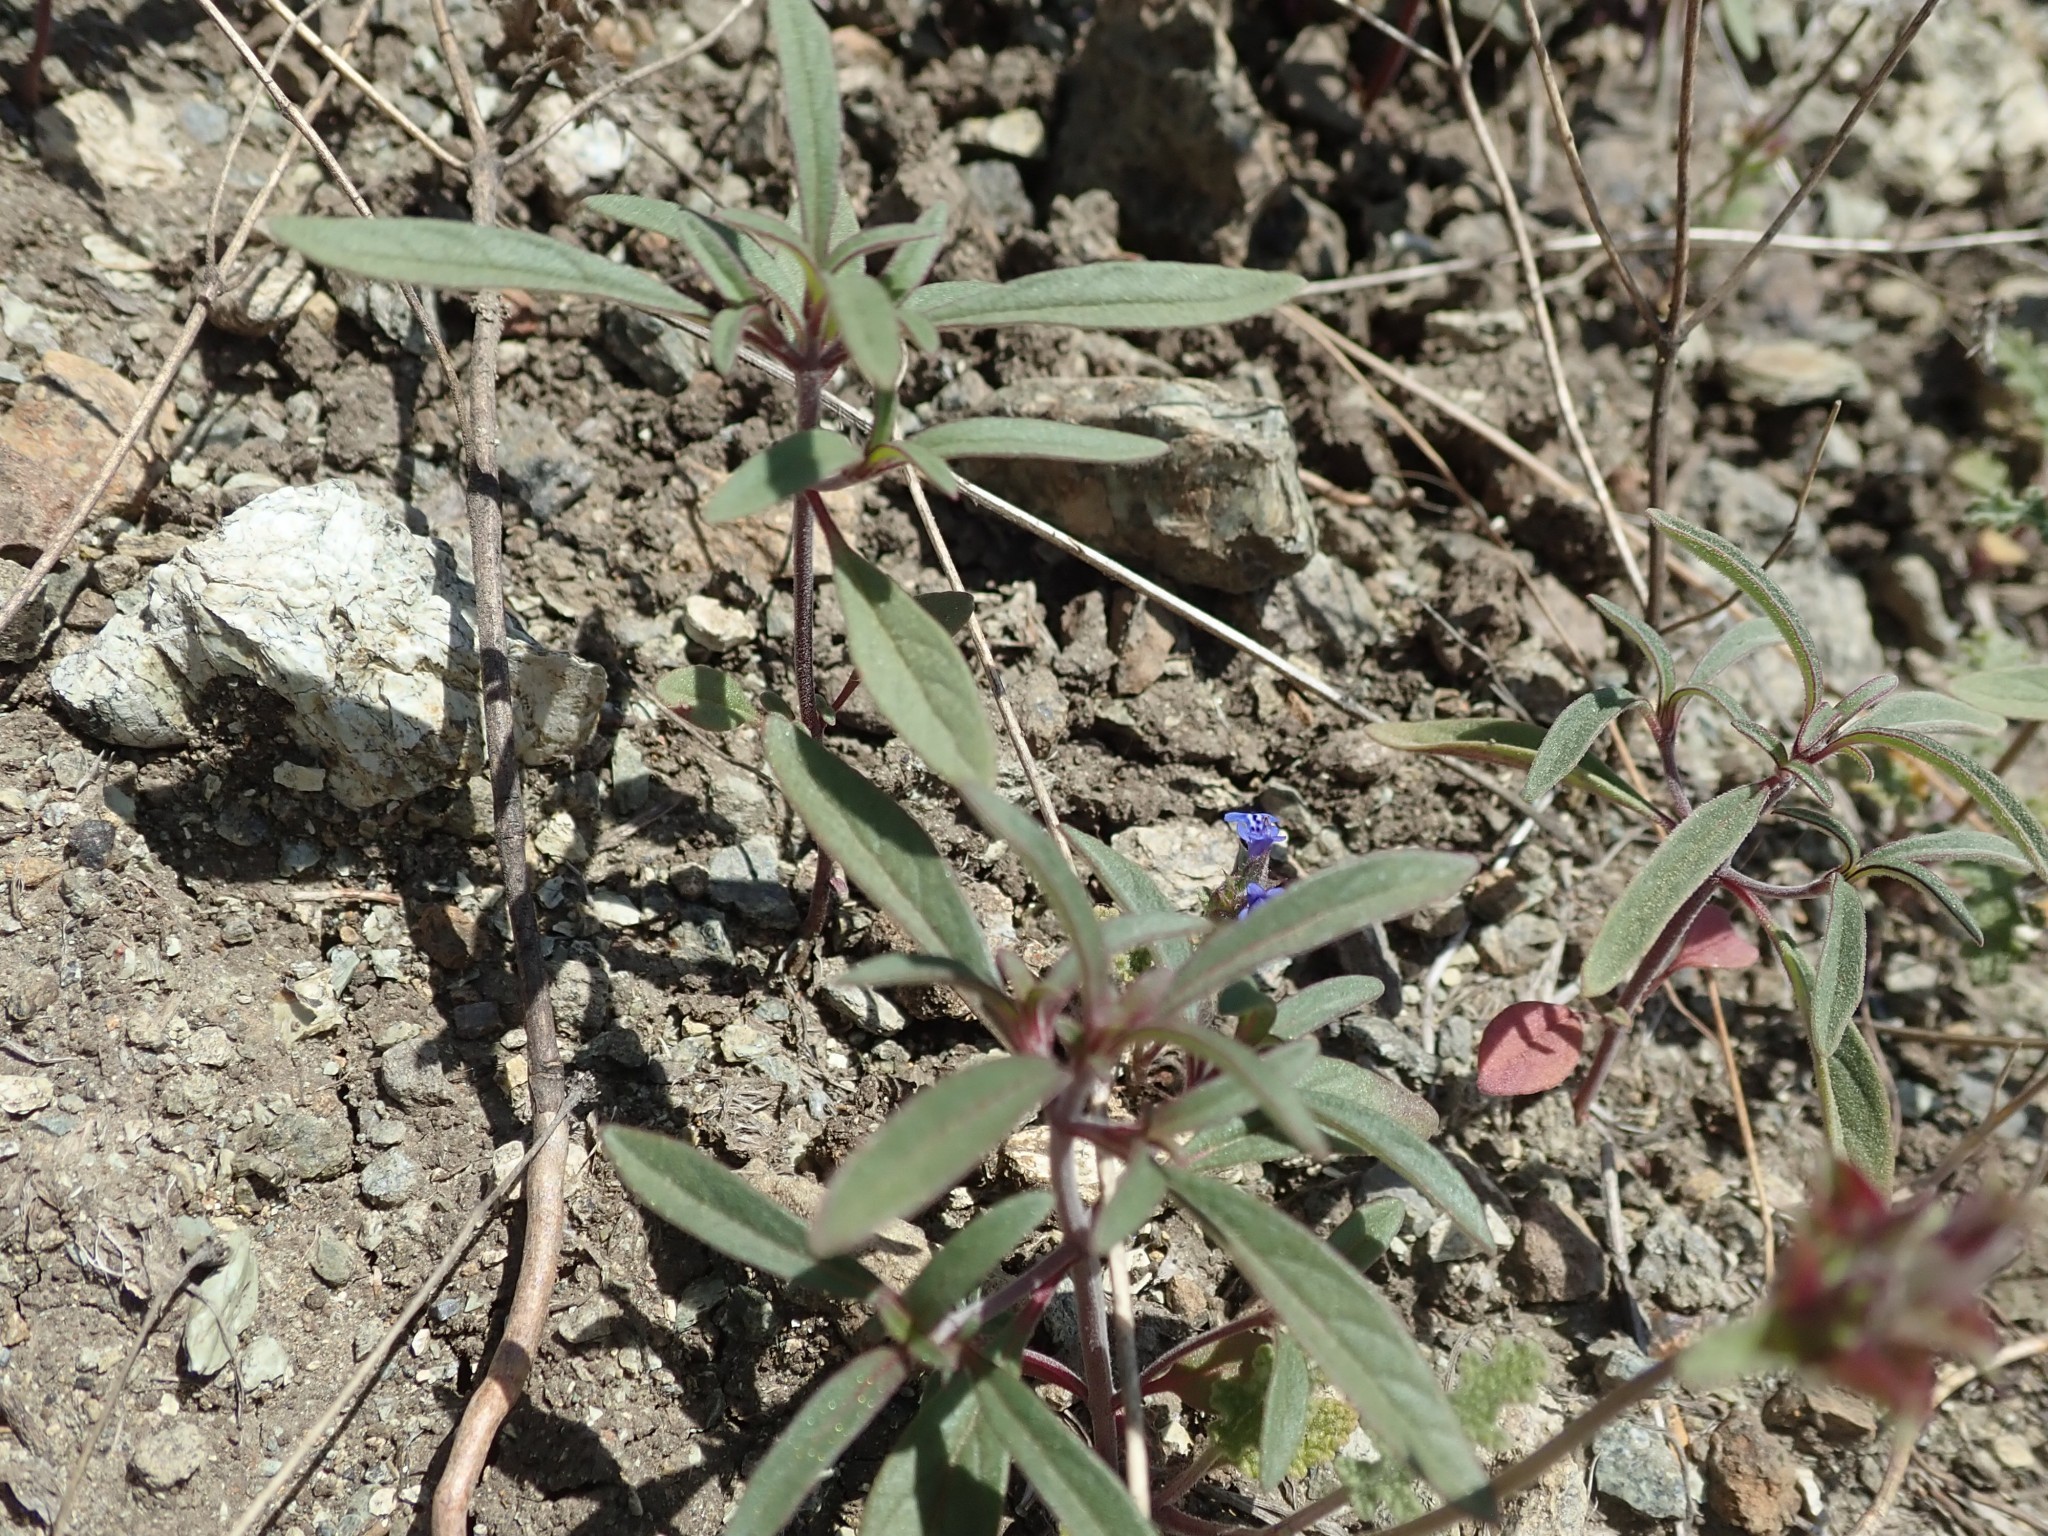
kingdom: Plantae
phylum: Tracheophyta
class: Magnoliopsida
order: Lamiales
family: Lamiaceae
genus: Monardella
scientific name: Monardella douglasii
